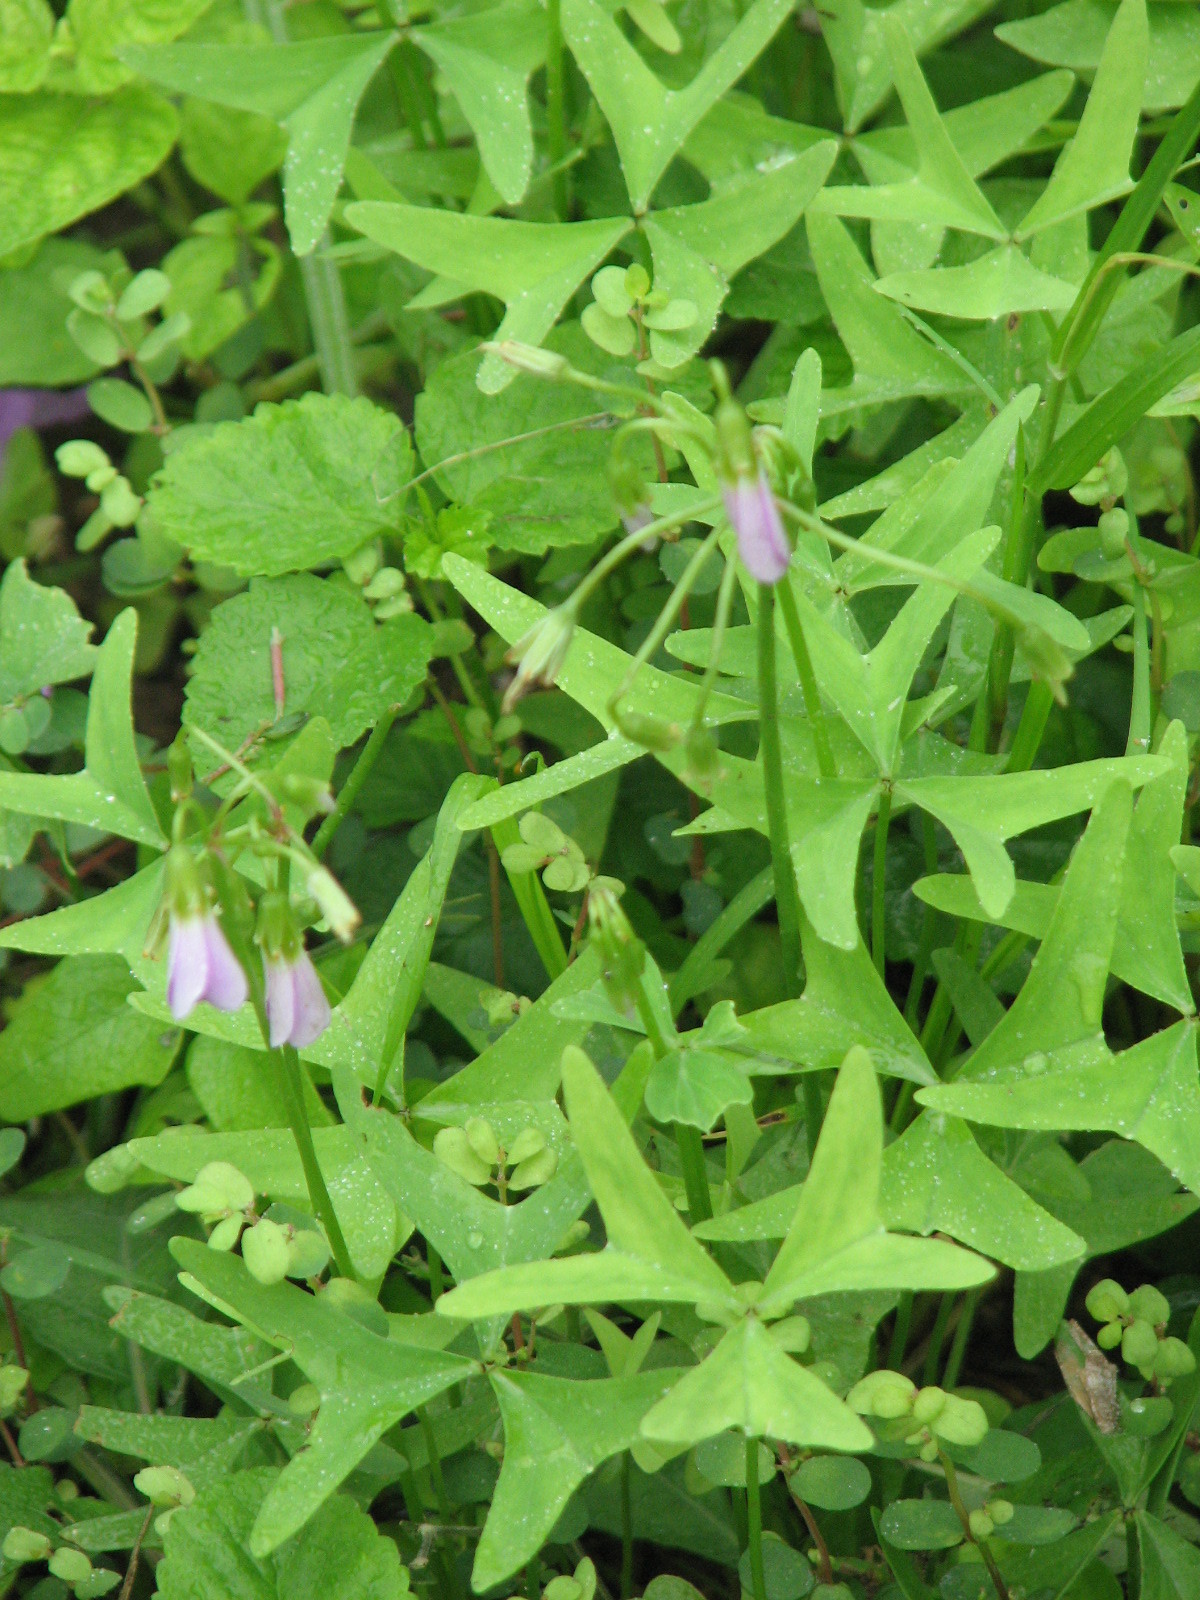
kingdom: Plantae
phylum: Tracheophyta
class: Magnoliopsida
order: Oxalidales
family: Oxalidaceae
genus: Oxalis
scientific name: Oxalis drummondii
